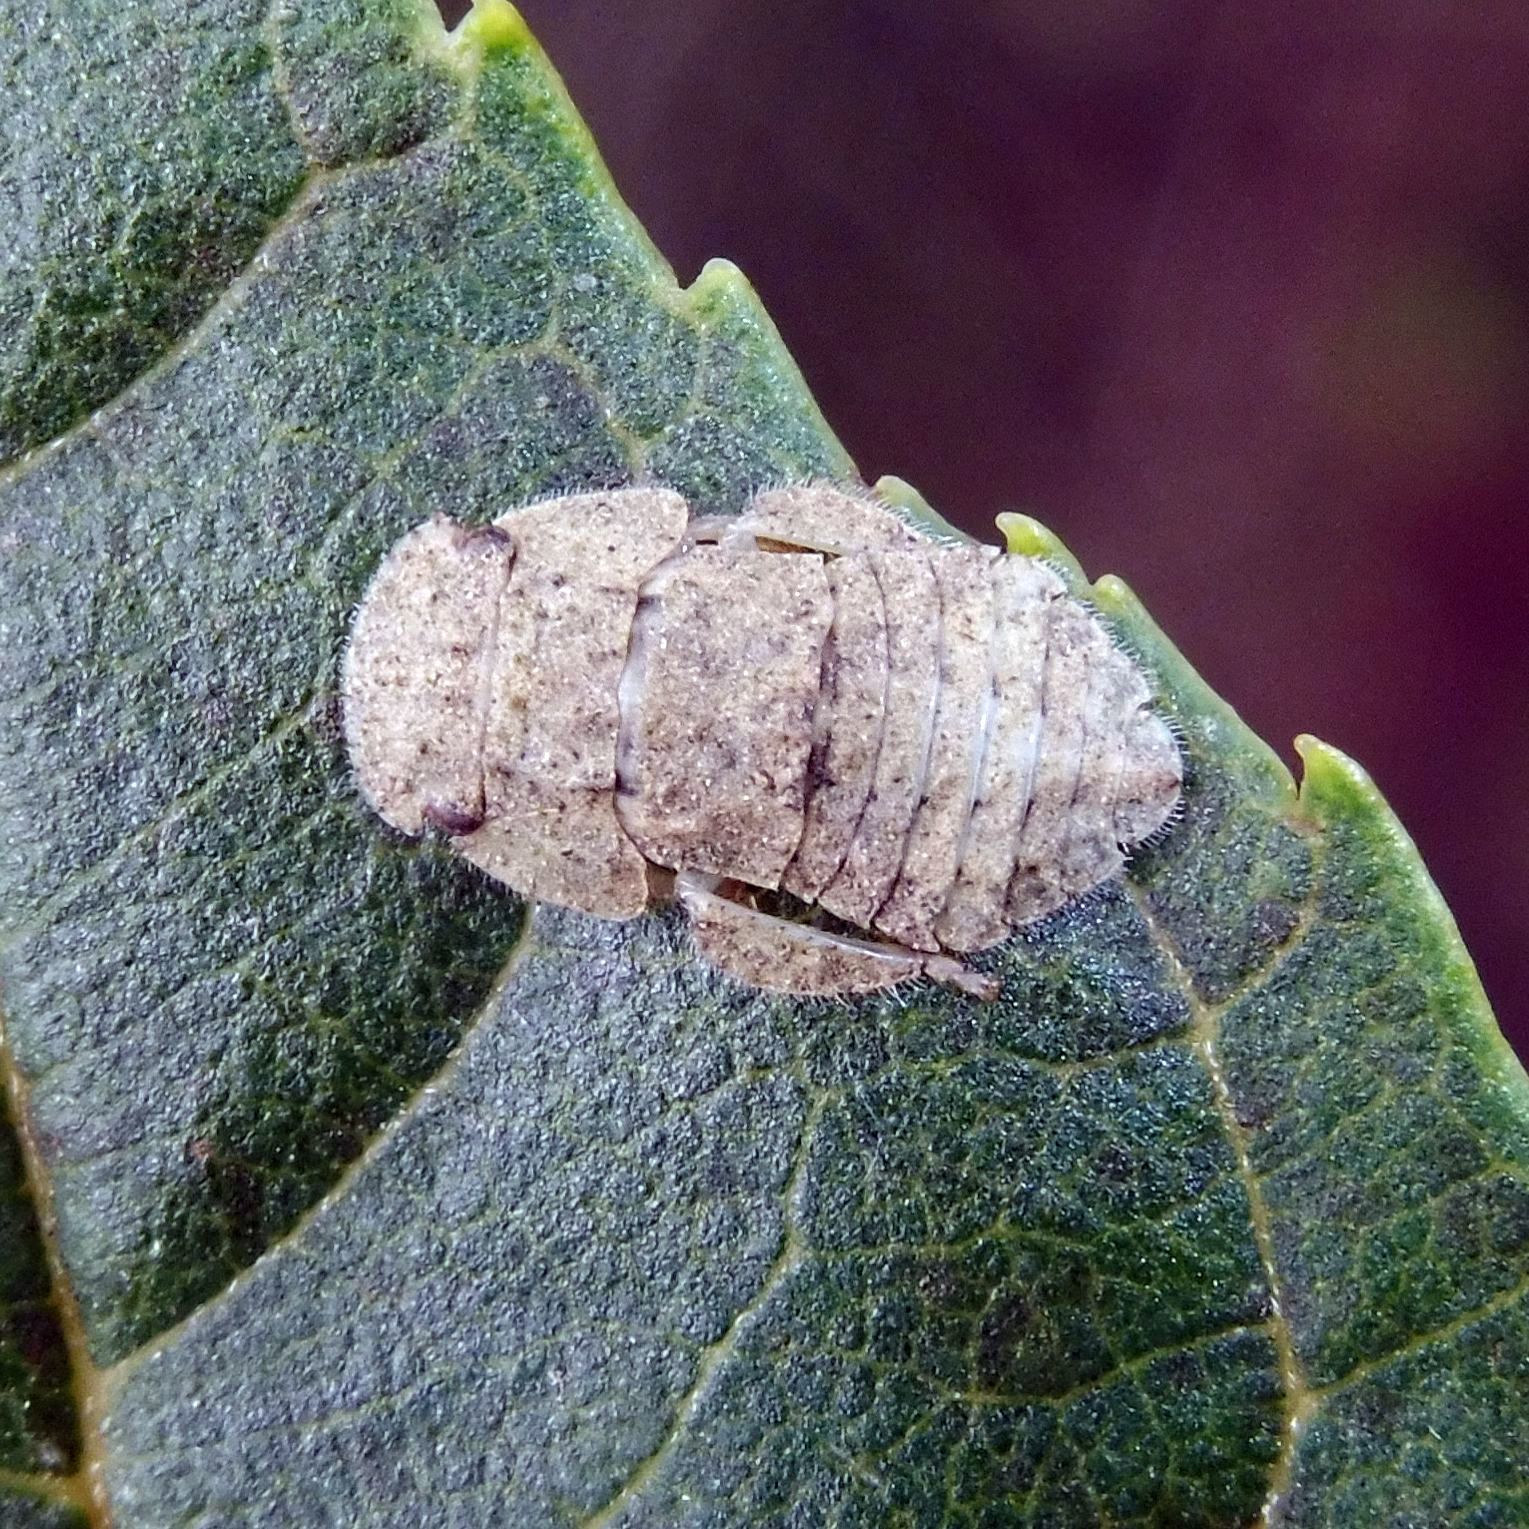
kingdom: Animalia
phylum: Arthropoda
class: Insecta
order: Hemiptera
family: Cicadellidae
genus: Ledra
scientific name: Ledra aurita
